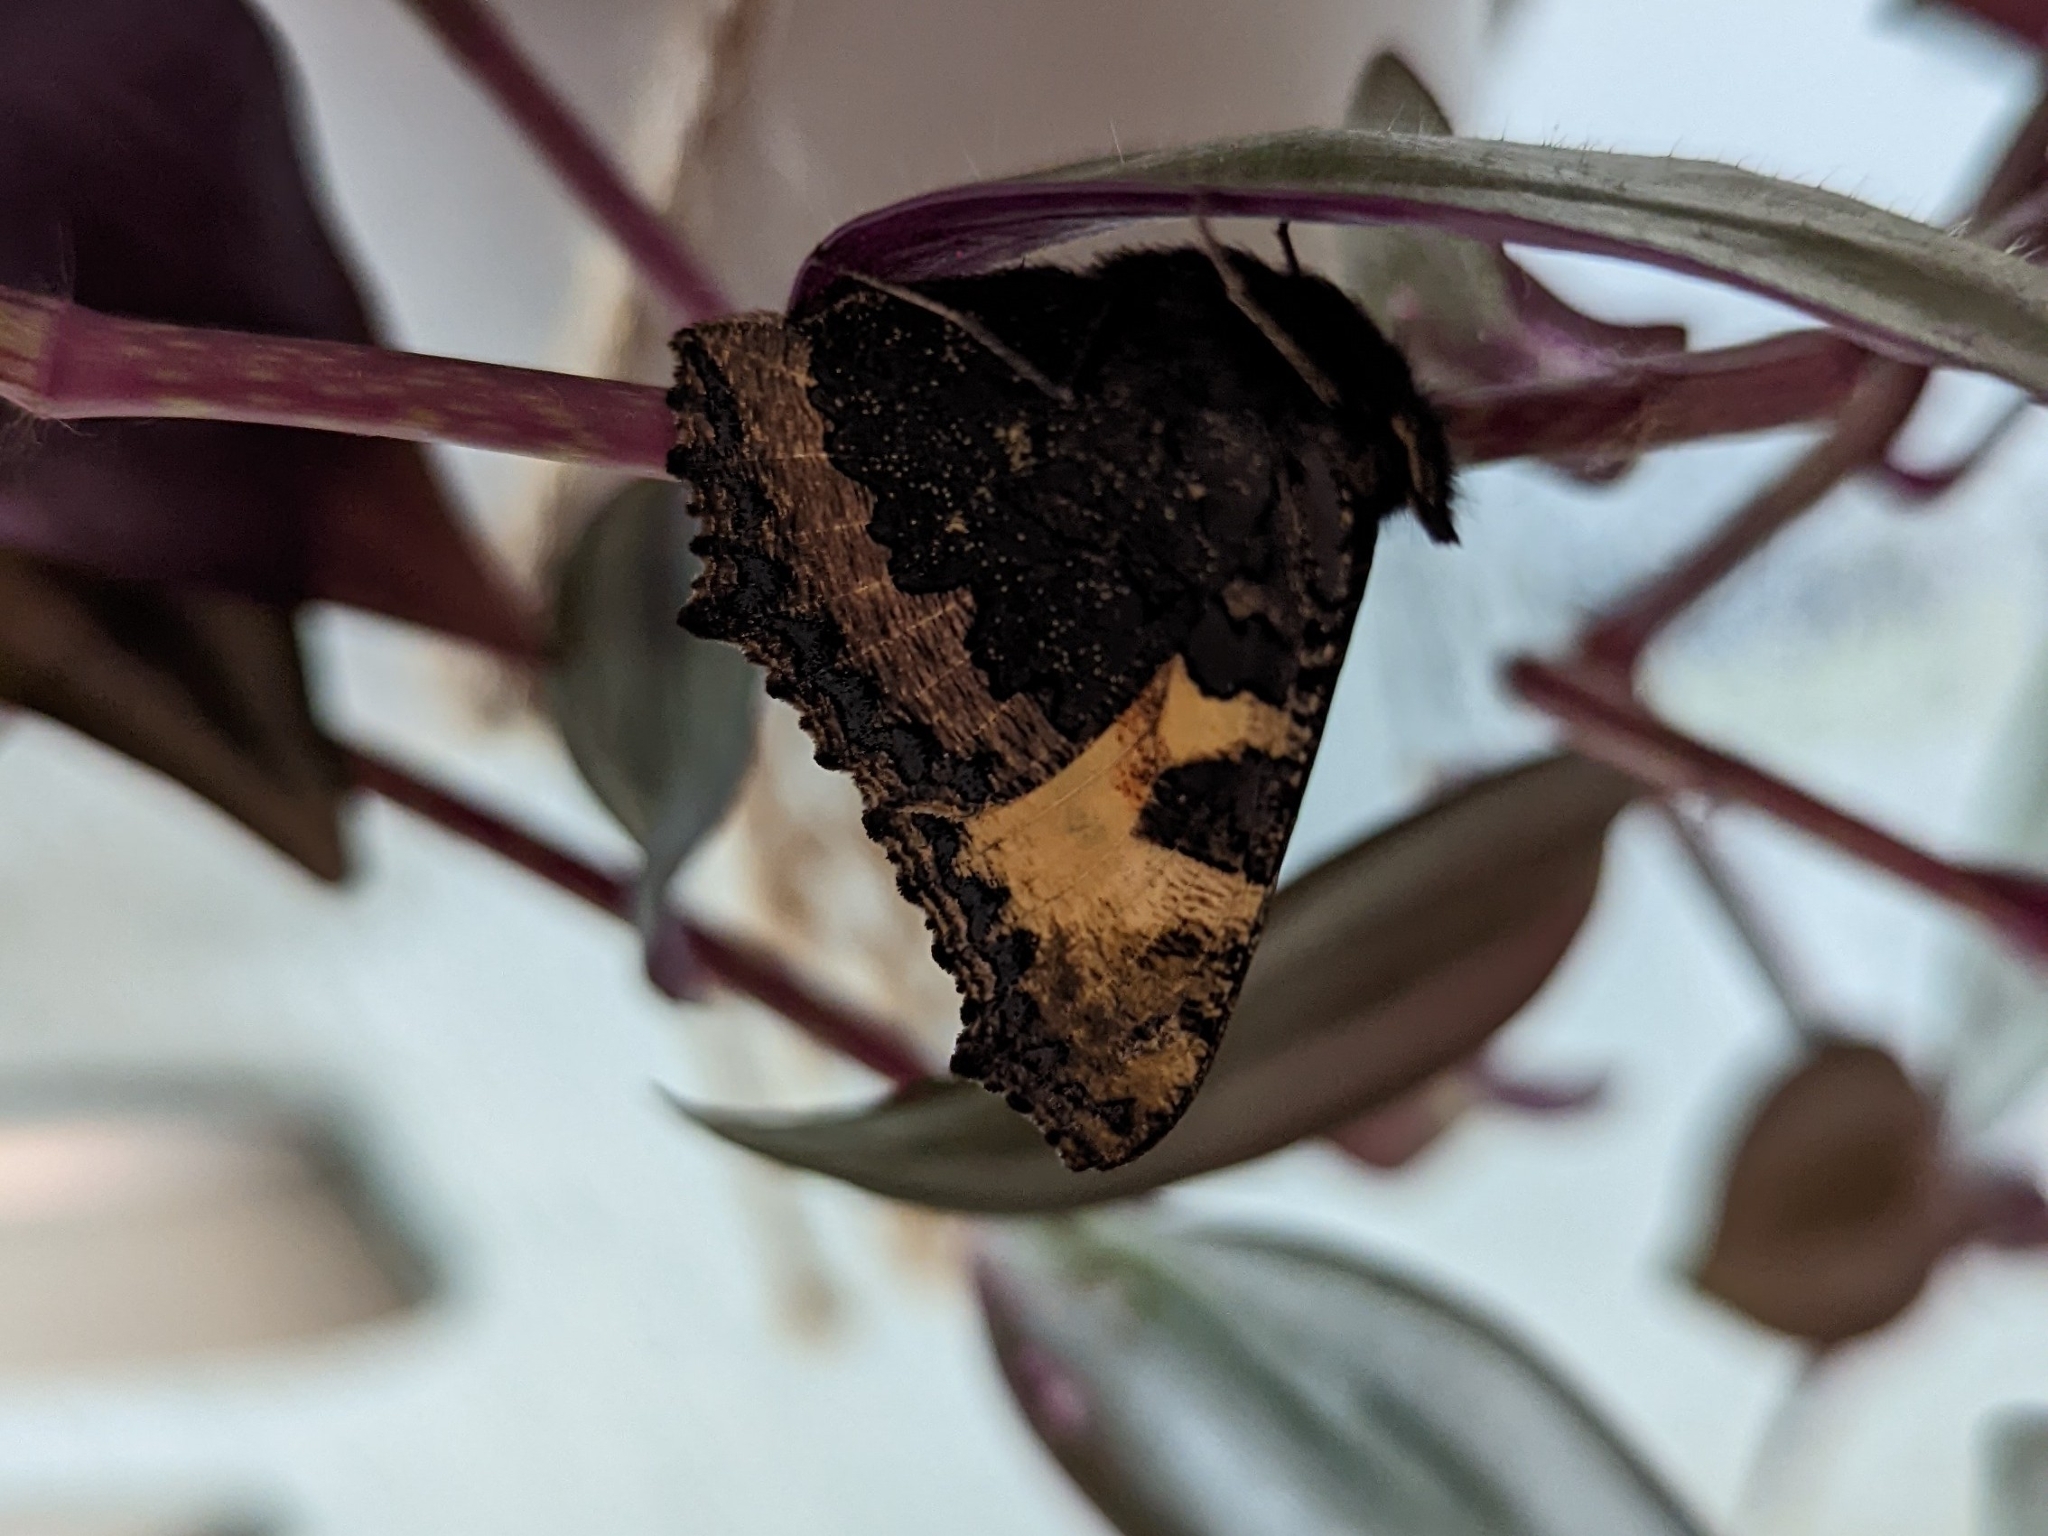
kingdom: Animalia
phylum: Arthropoda
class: Insecta
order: Lepidoptera
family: Nymphalidae
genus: Aglais
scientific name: Aglais urticae
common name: Small tortoiseshell
